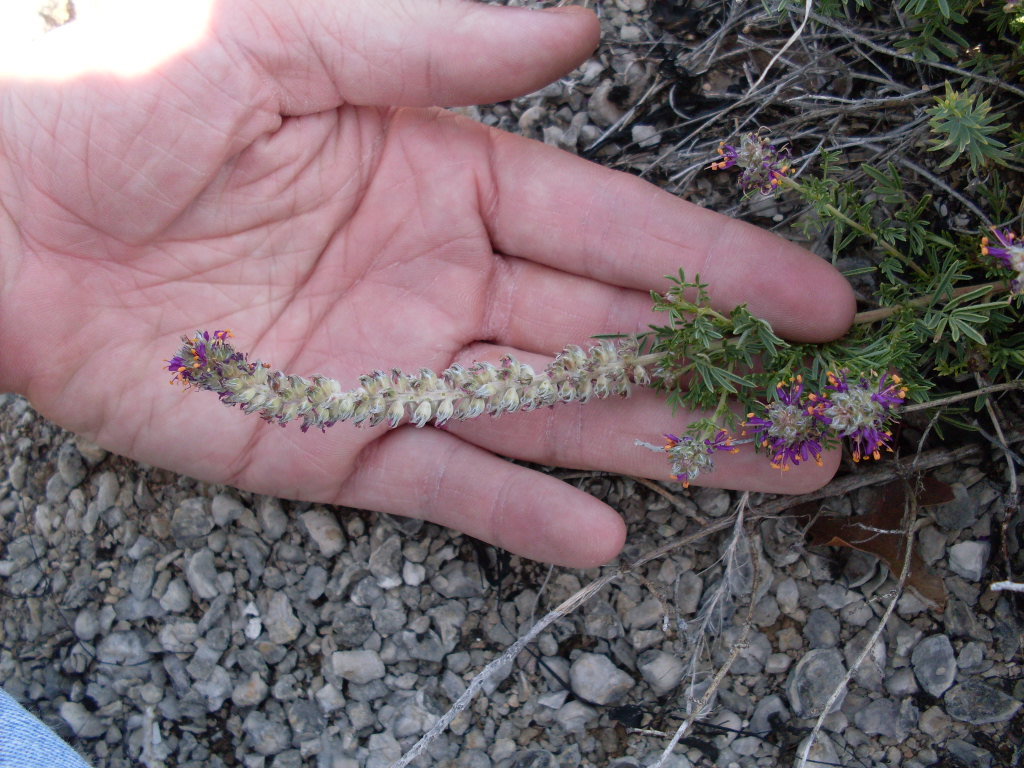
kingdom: Plantae
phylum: Tracheophyta
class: Magnoliopsida
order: Fabales
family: Fabaceae
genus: Dalea
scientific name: Dalea reverchonii
